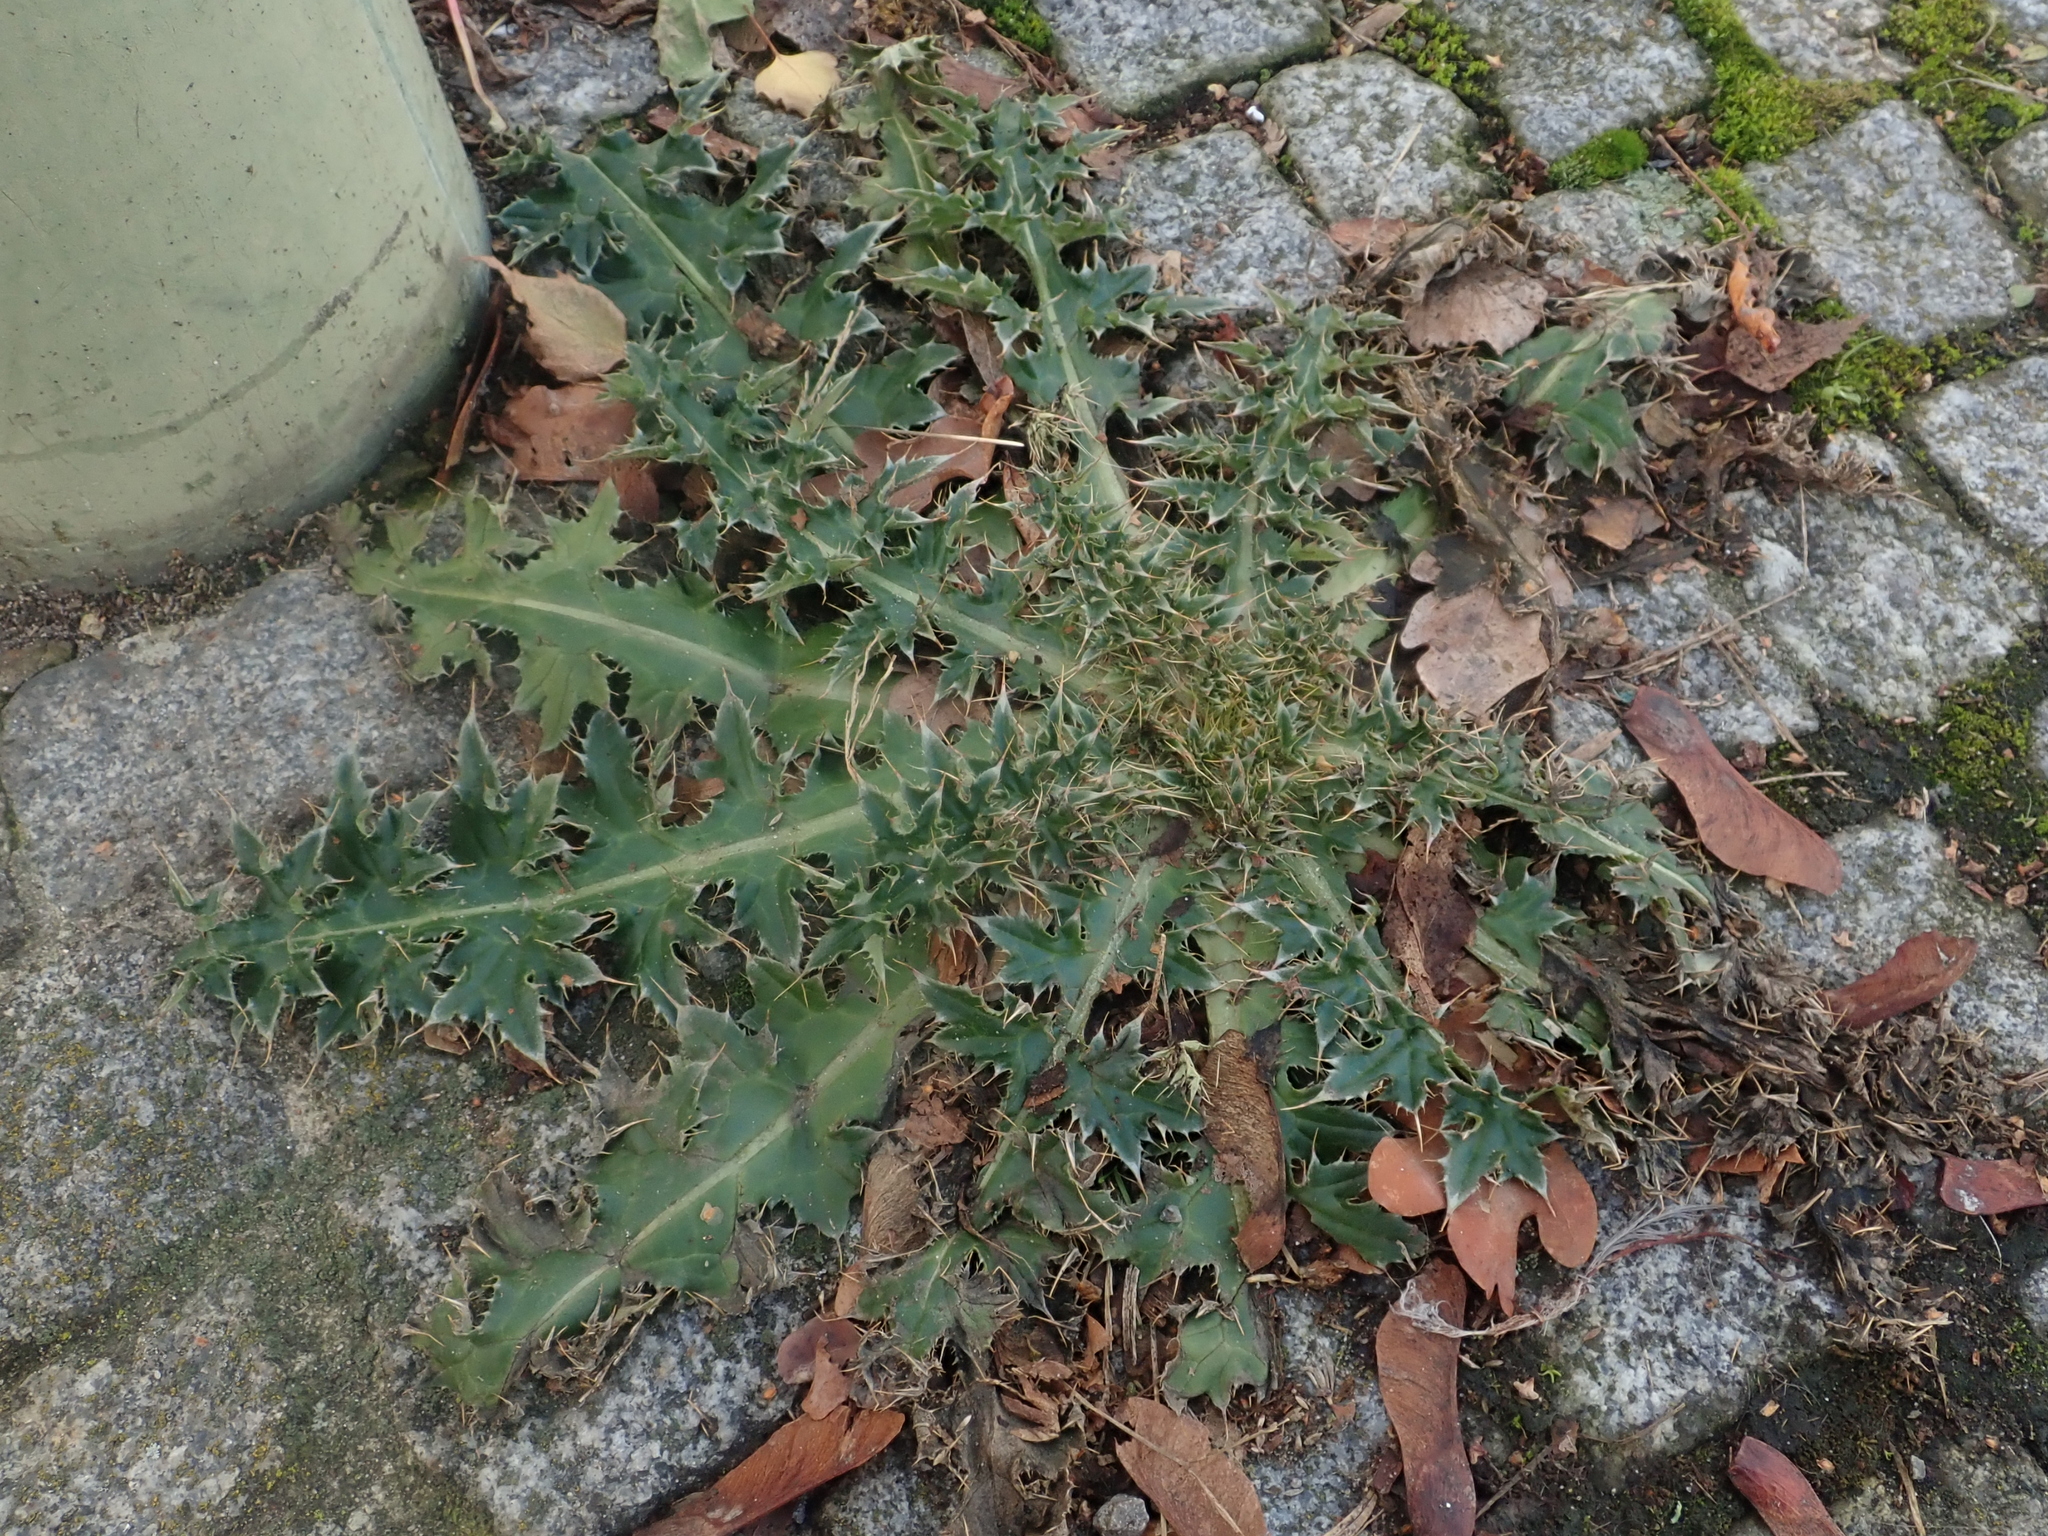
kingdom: Plantae
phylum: Tracheophyta
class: Magnoliopsida
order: Asterales
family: Asteraceae
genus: Sonchus
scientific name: Sonchus asper
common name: Prickly sow-thistle
